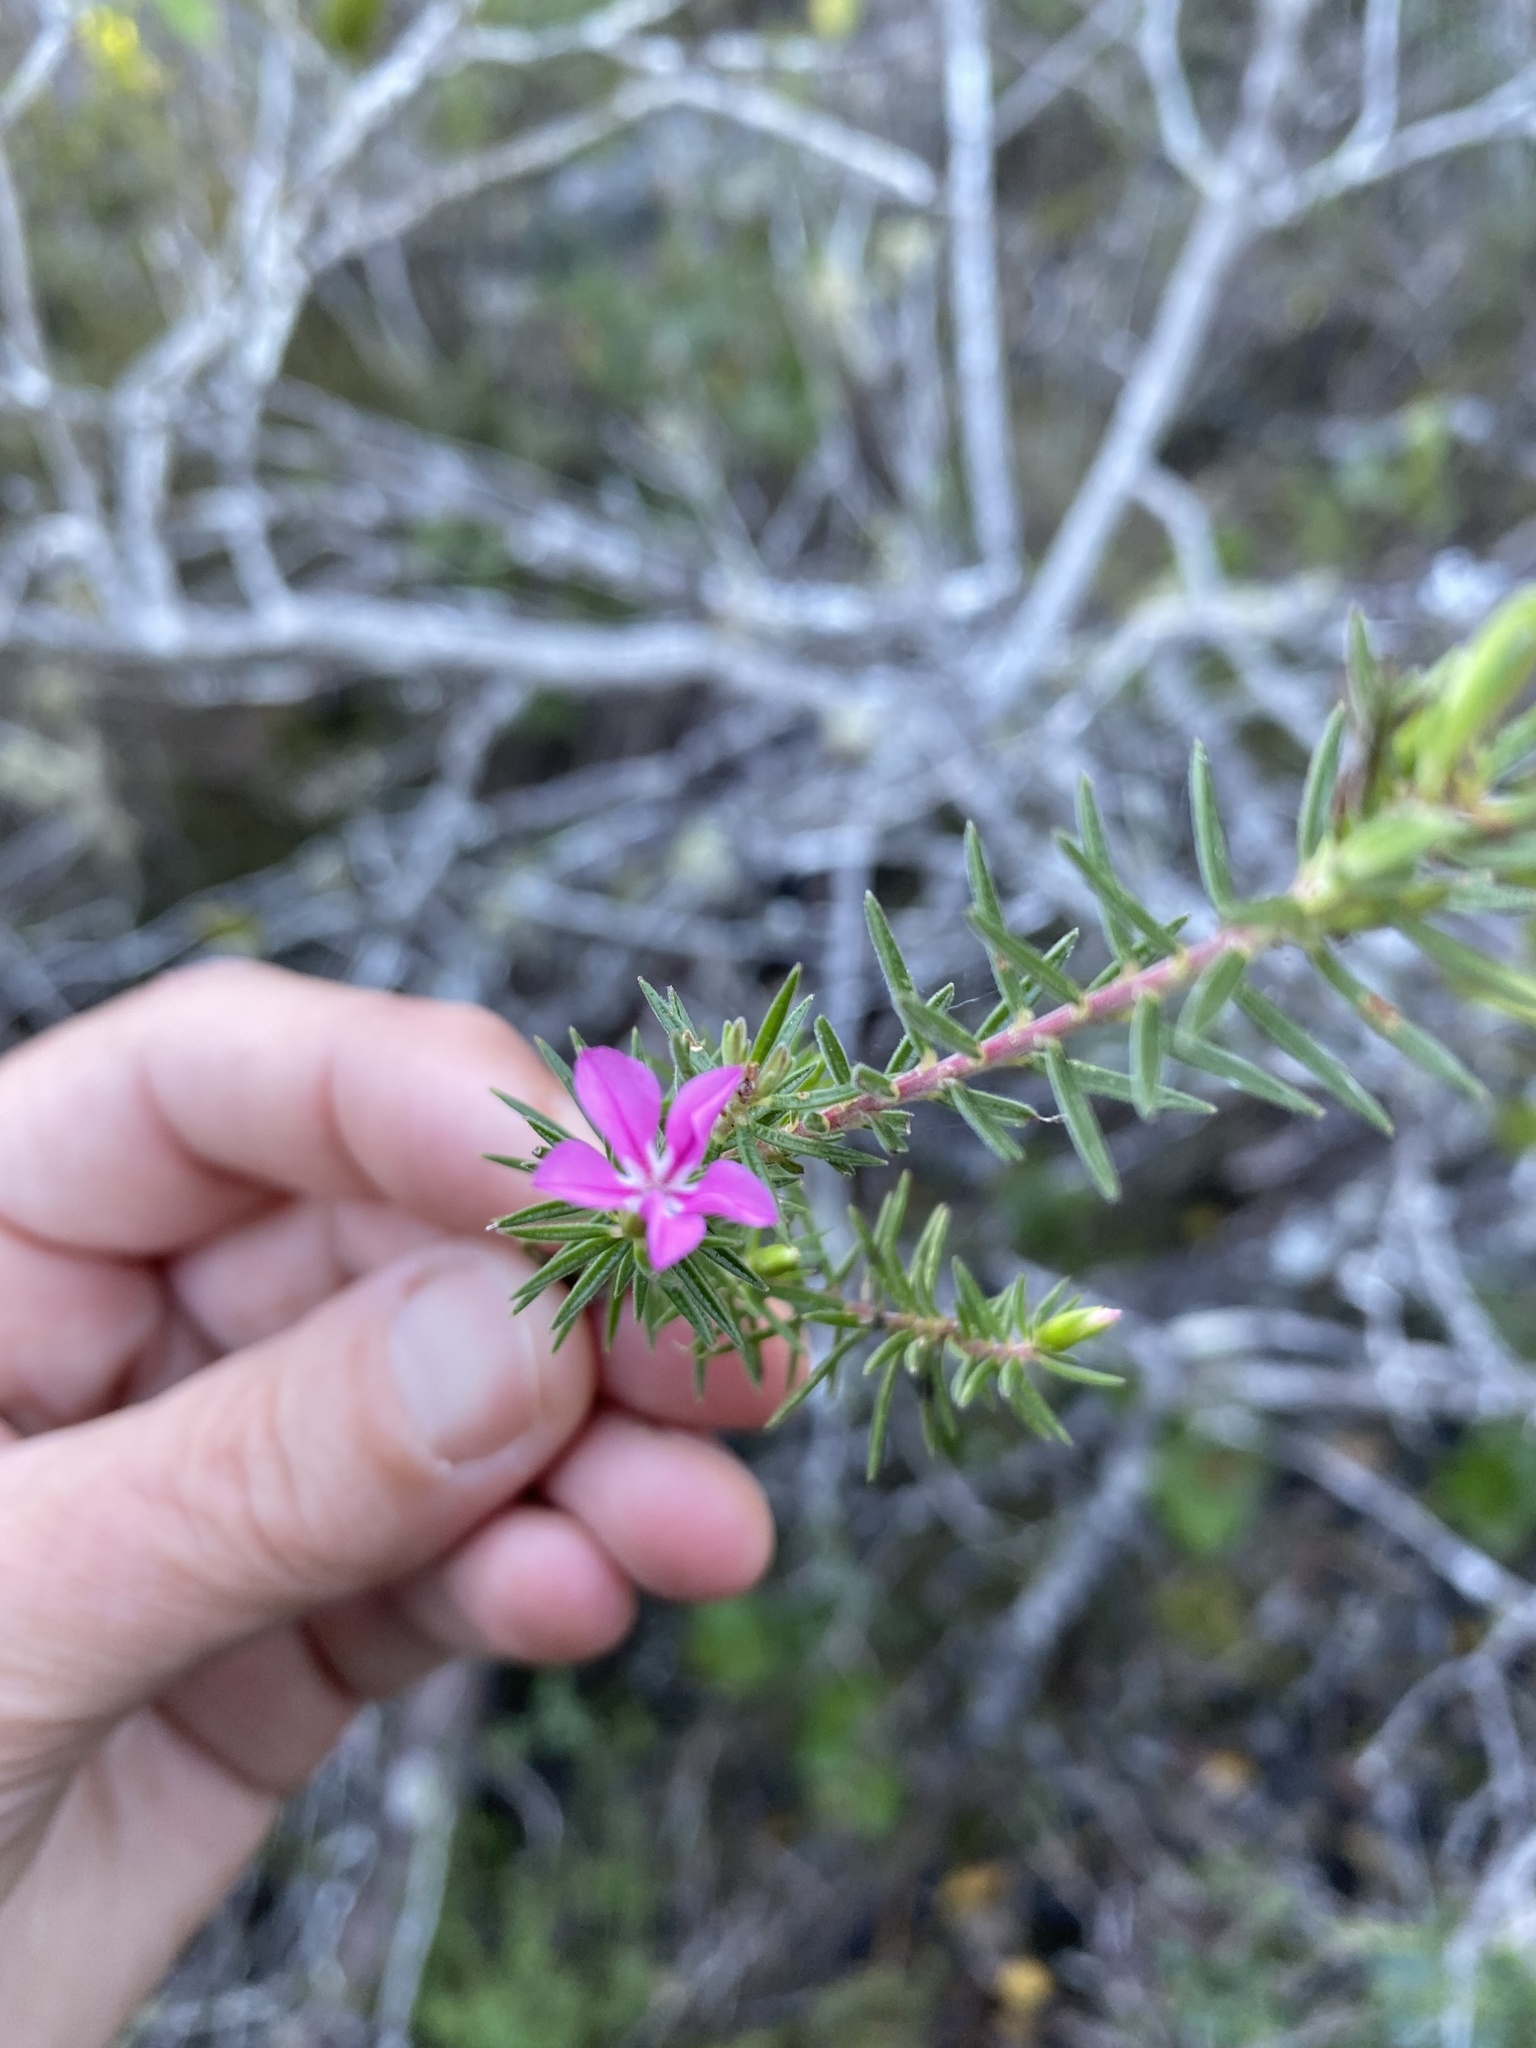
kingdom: Plantae
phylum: Tracheophyta
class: Magnoliopsida
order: Sapindales
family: Rutaceae
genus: Acmadenia
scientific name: Acmadenia obtusata
